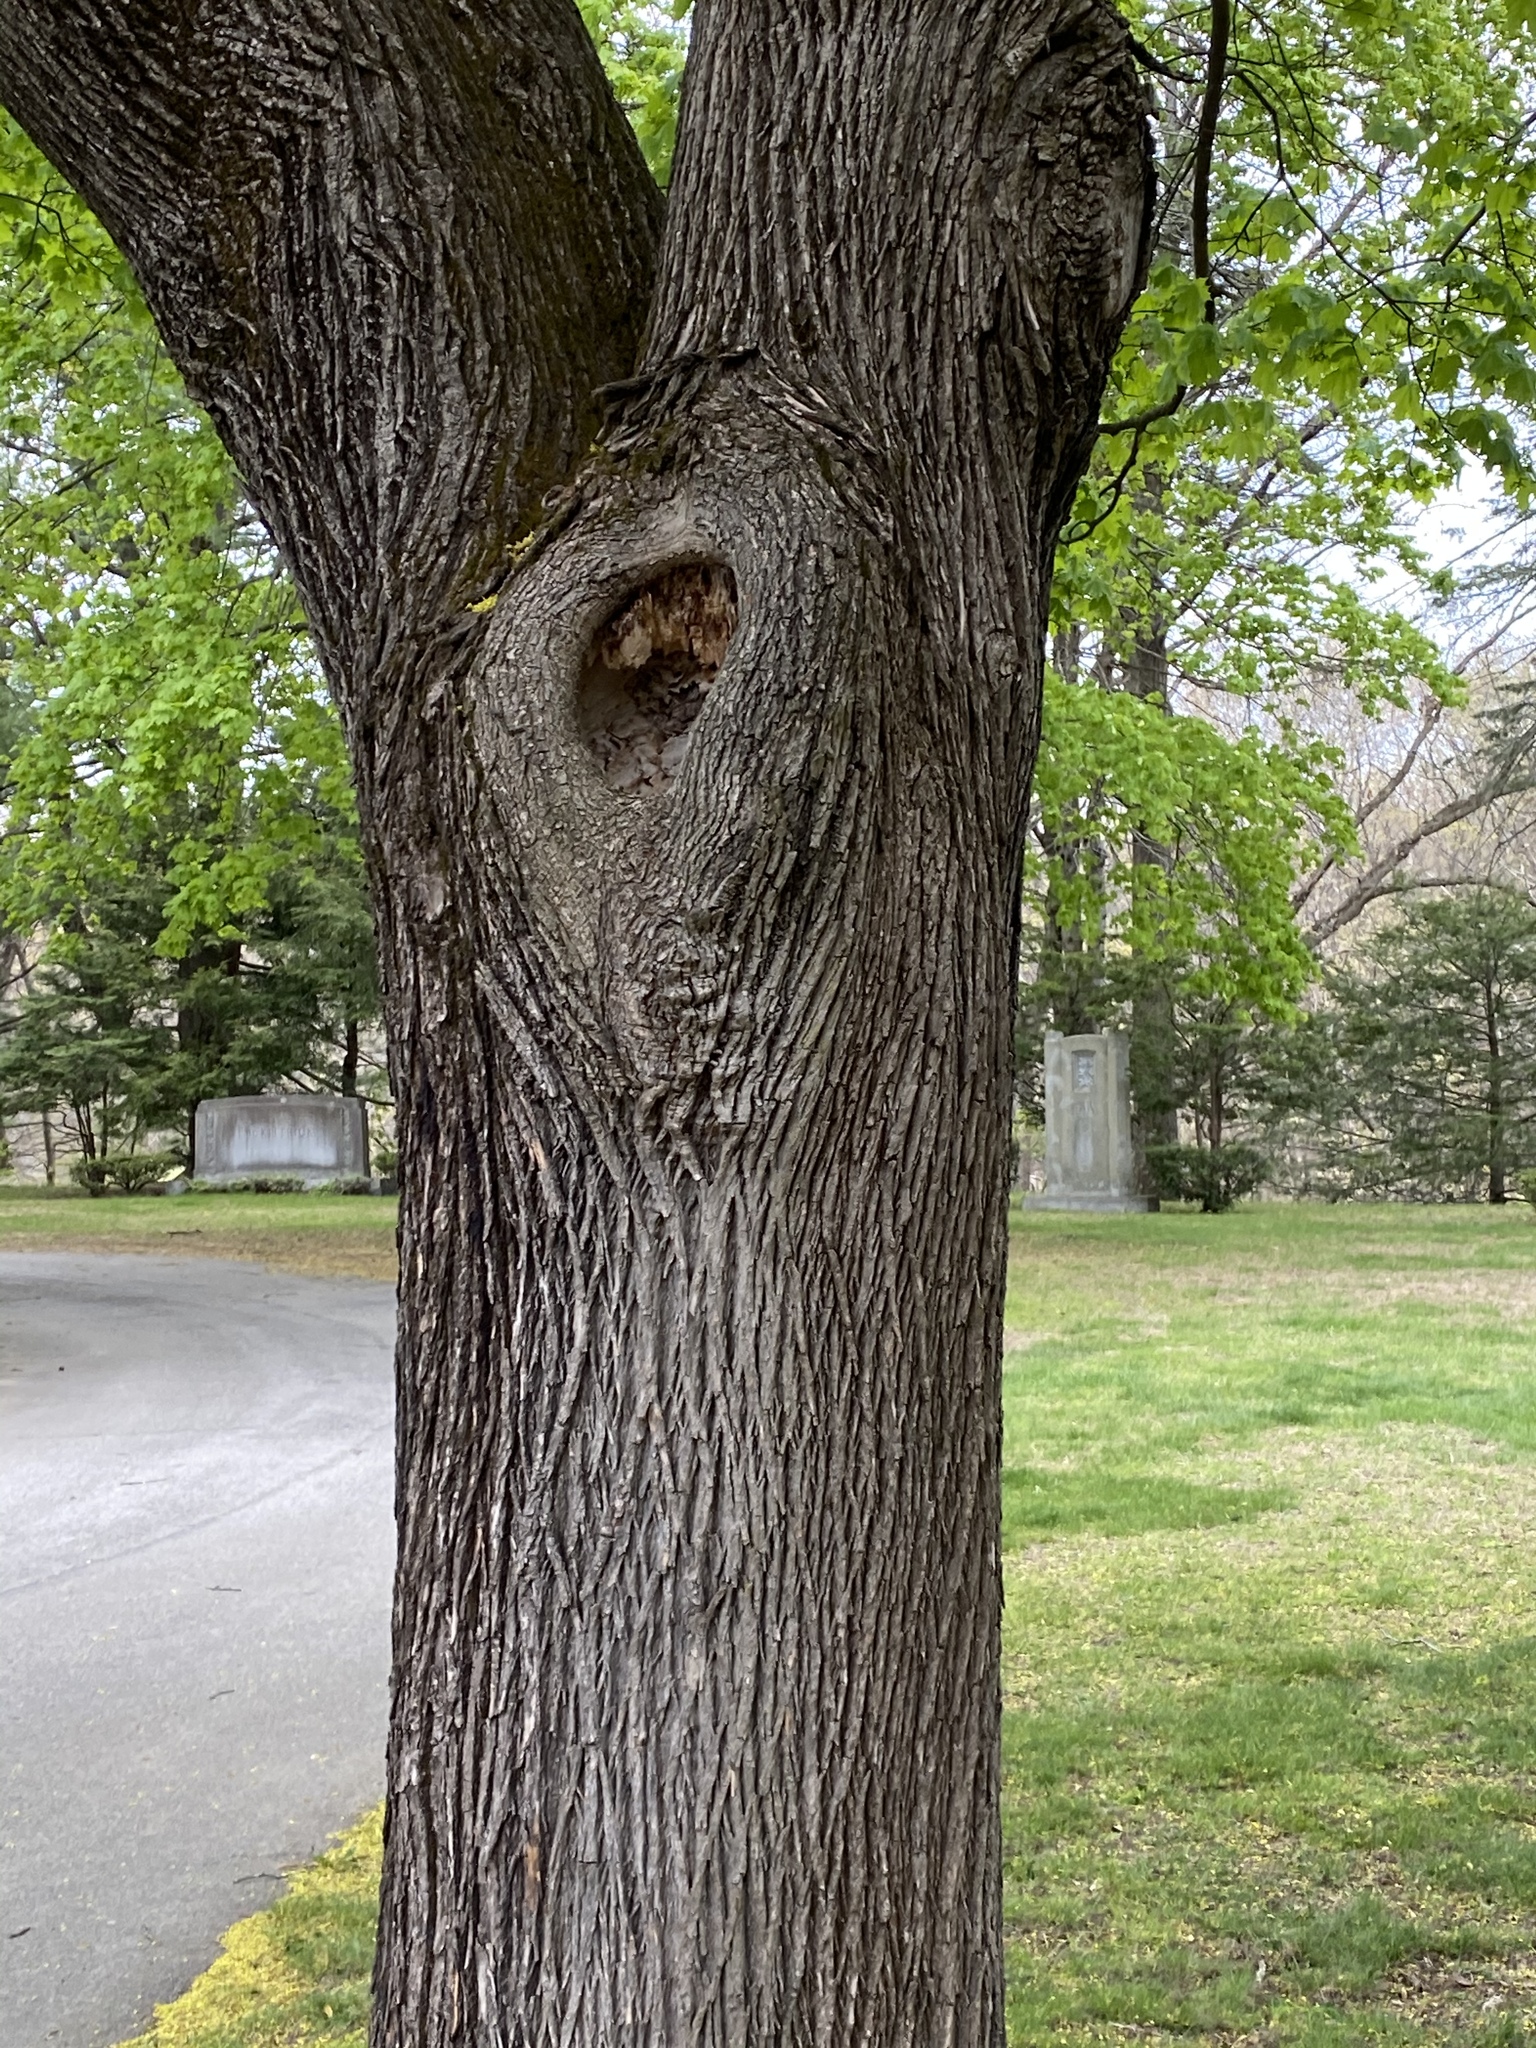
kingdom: Plantae
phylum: Tracheophyta
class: Magnoliopsida
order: Sapindales
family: Sapindaceae
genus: Acer
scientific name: Acer platanoides
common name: Norway maple
